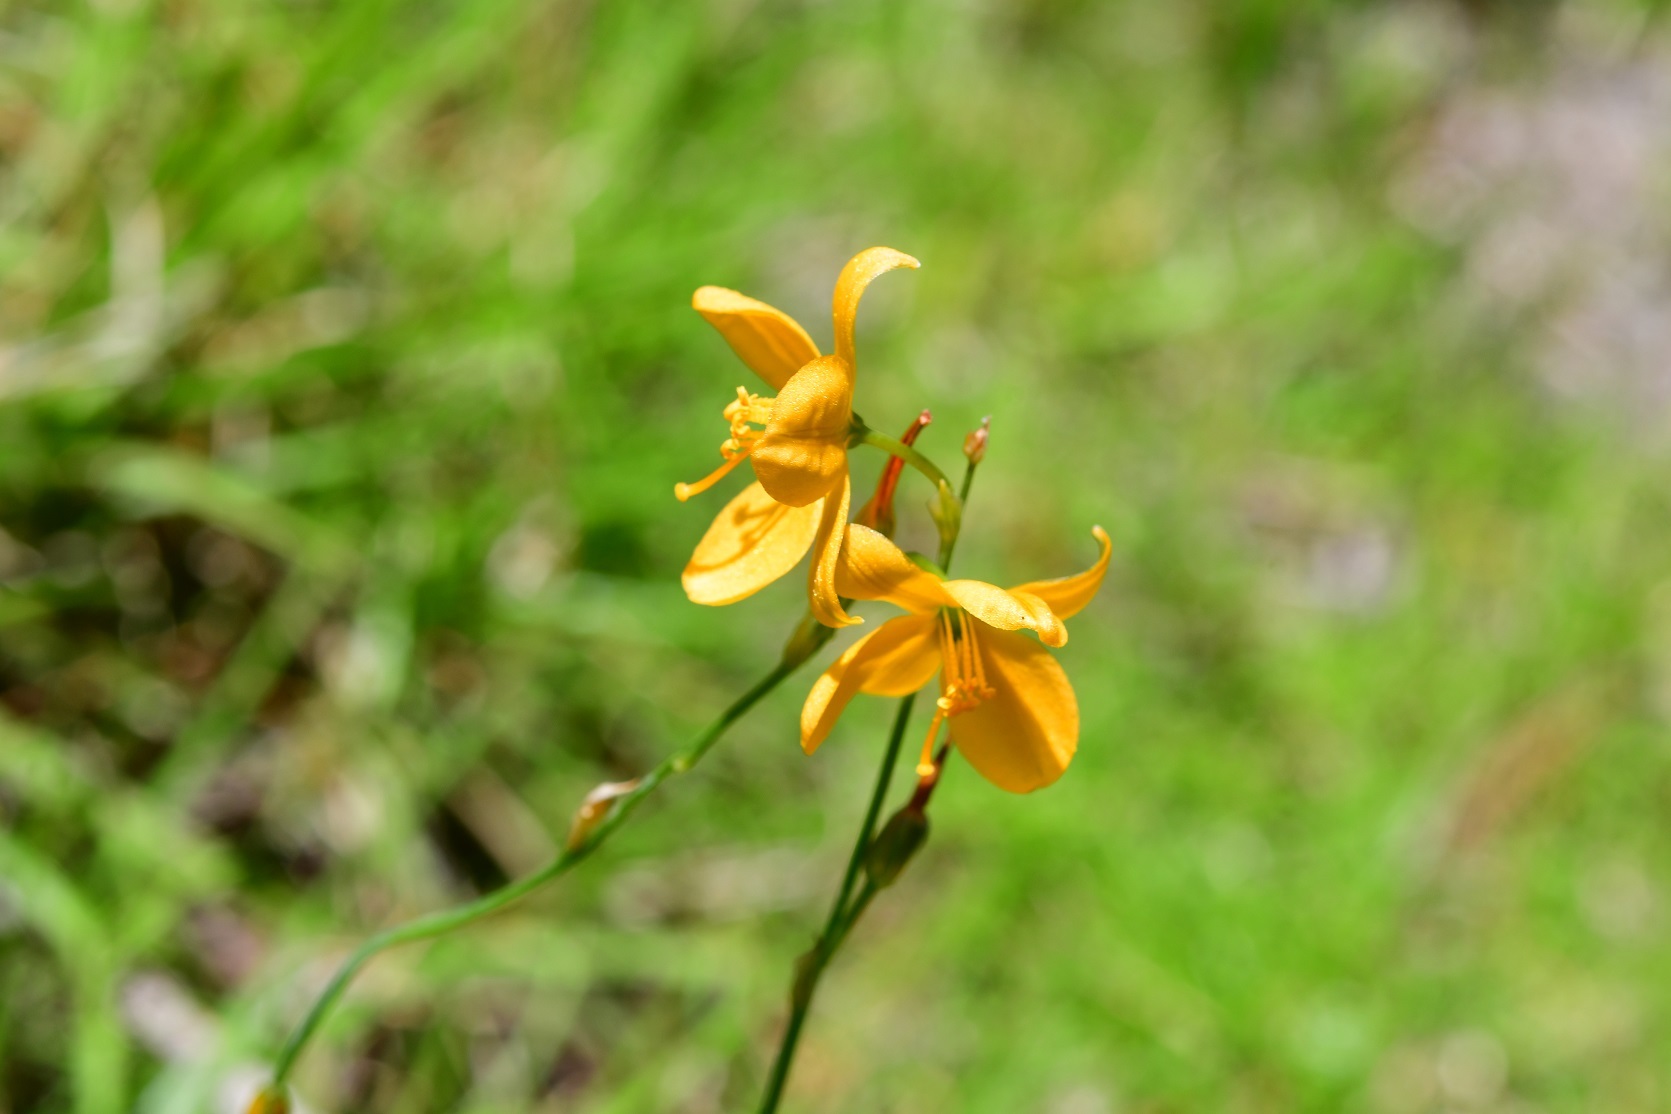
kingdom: Plantae
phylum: Tracheophyta
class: Liliopsida
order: Asparagales
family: Asparagaceae
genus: Echeandia
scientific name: Echeandia skinneri
